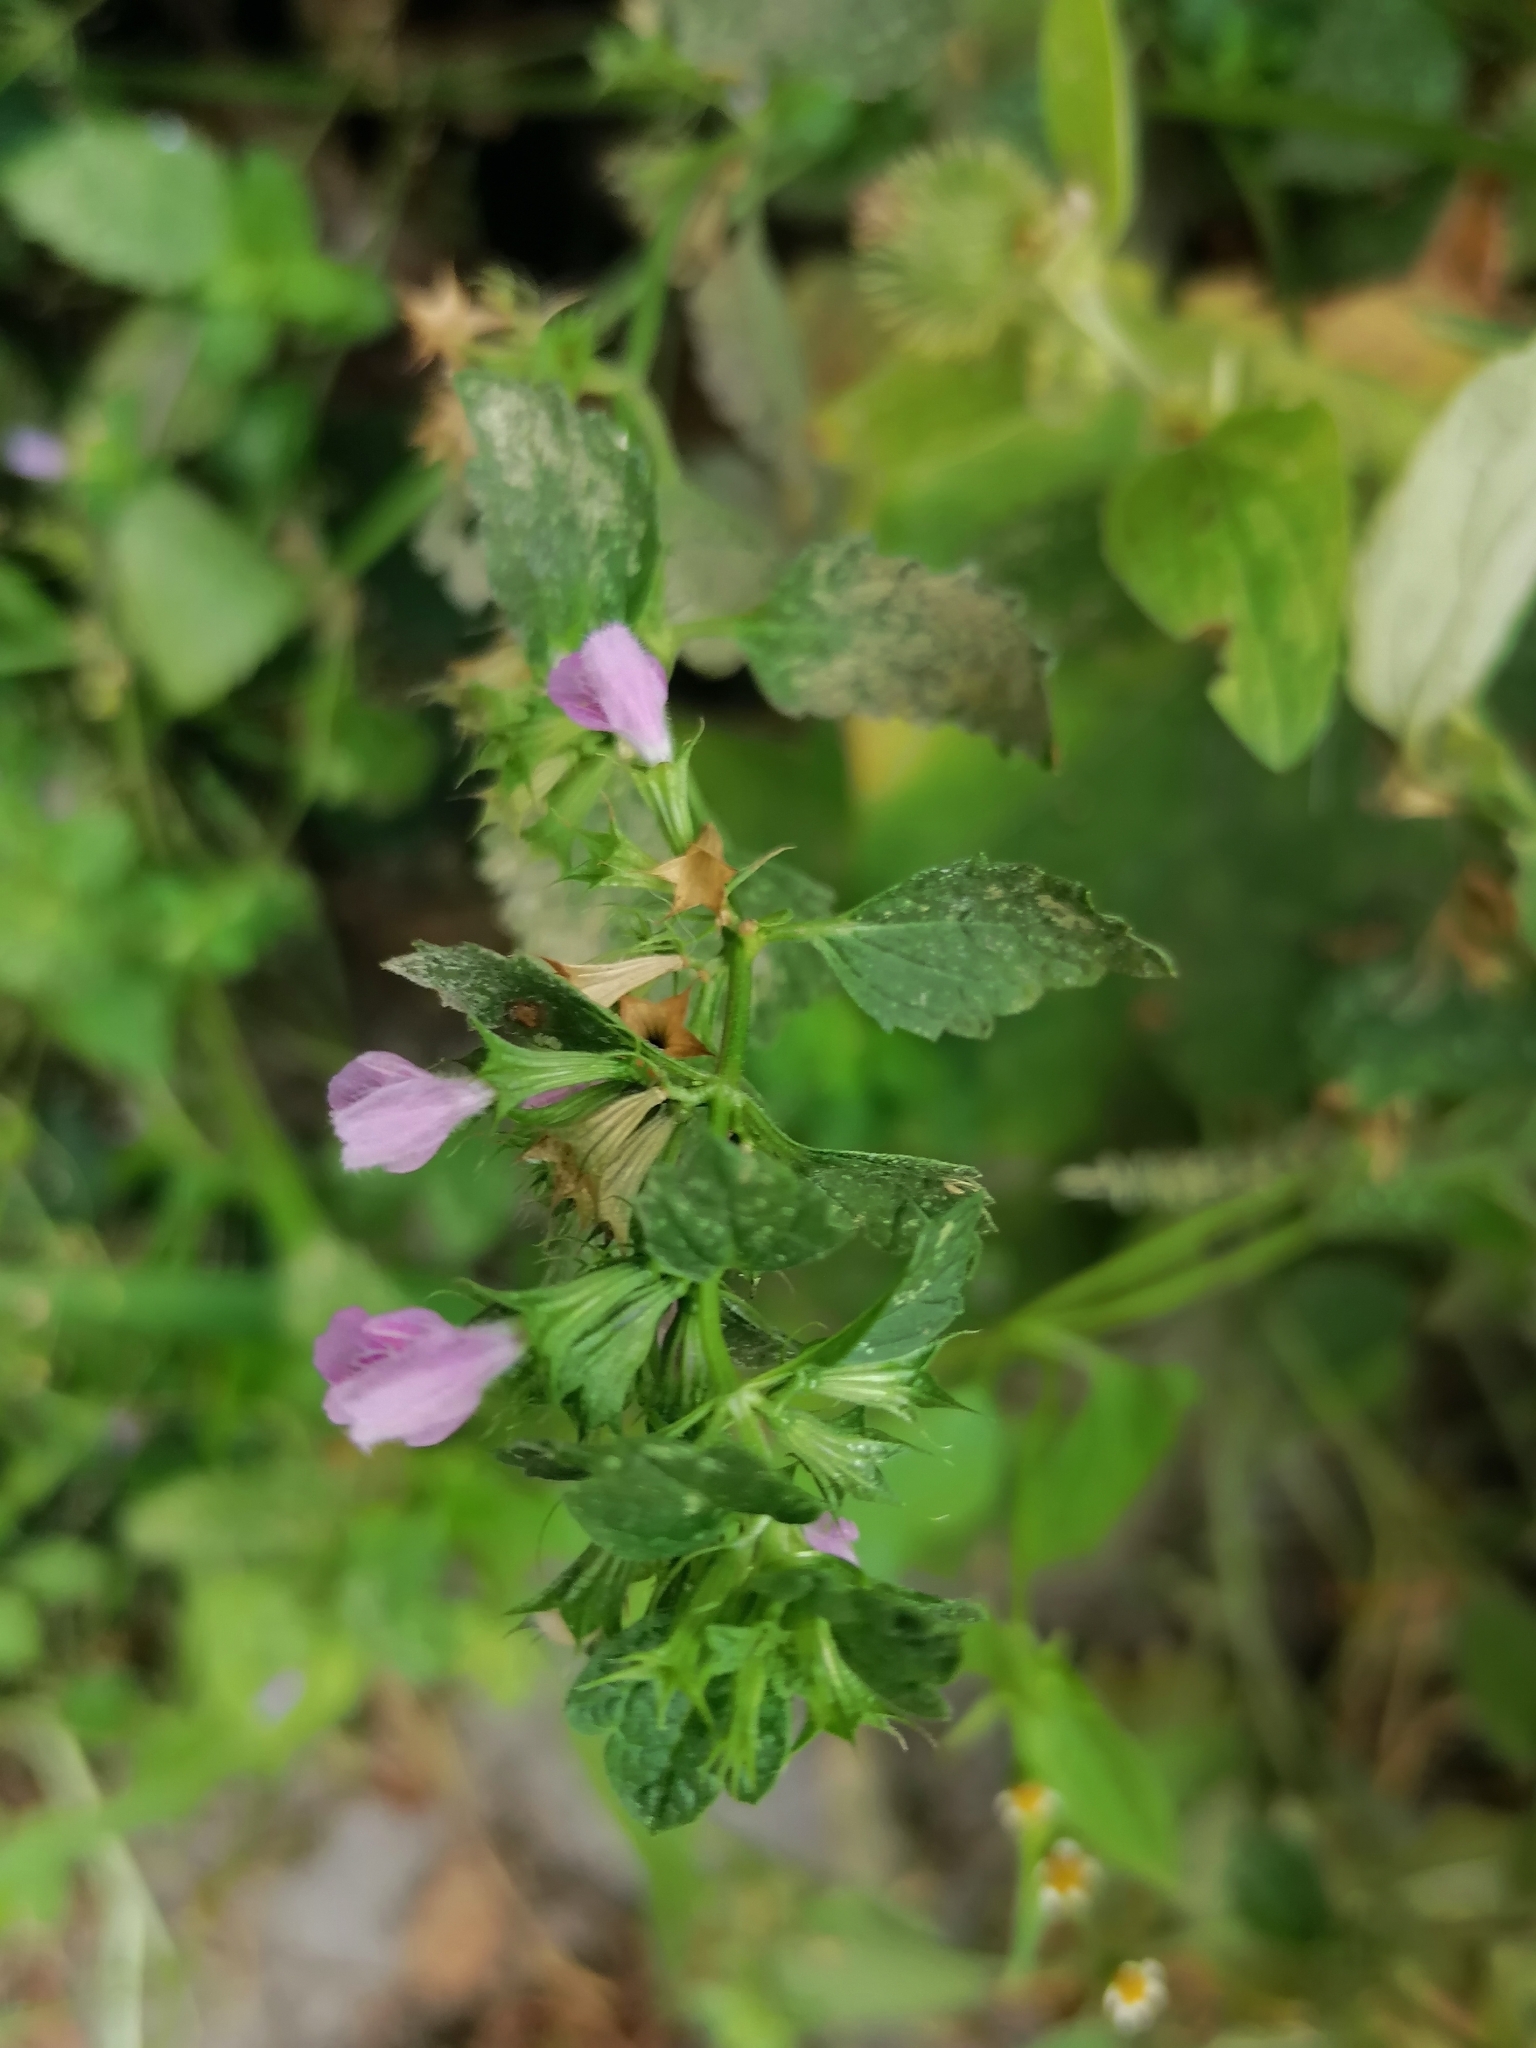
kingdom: Plantae
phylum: Tracheophyta
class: Magnoliopsida
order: Lamiales
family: Lamiaceae
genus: Ballota
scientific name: Ballota nigra
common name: Black horehound
